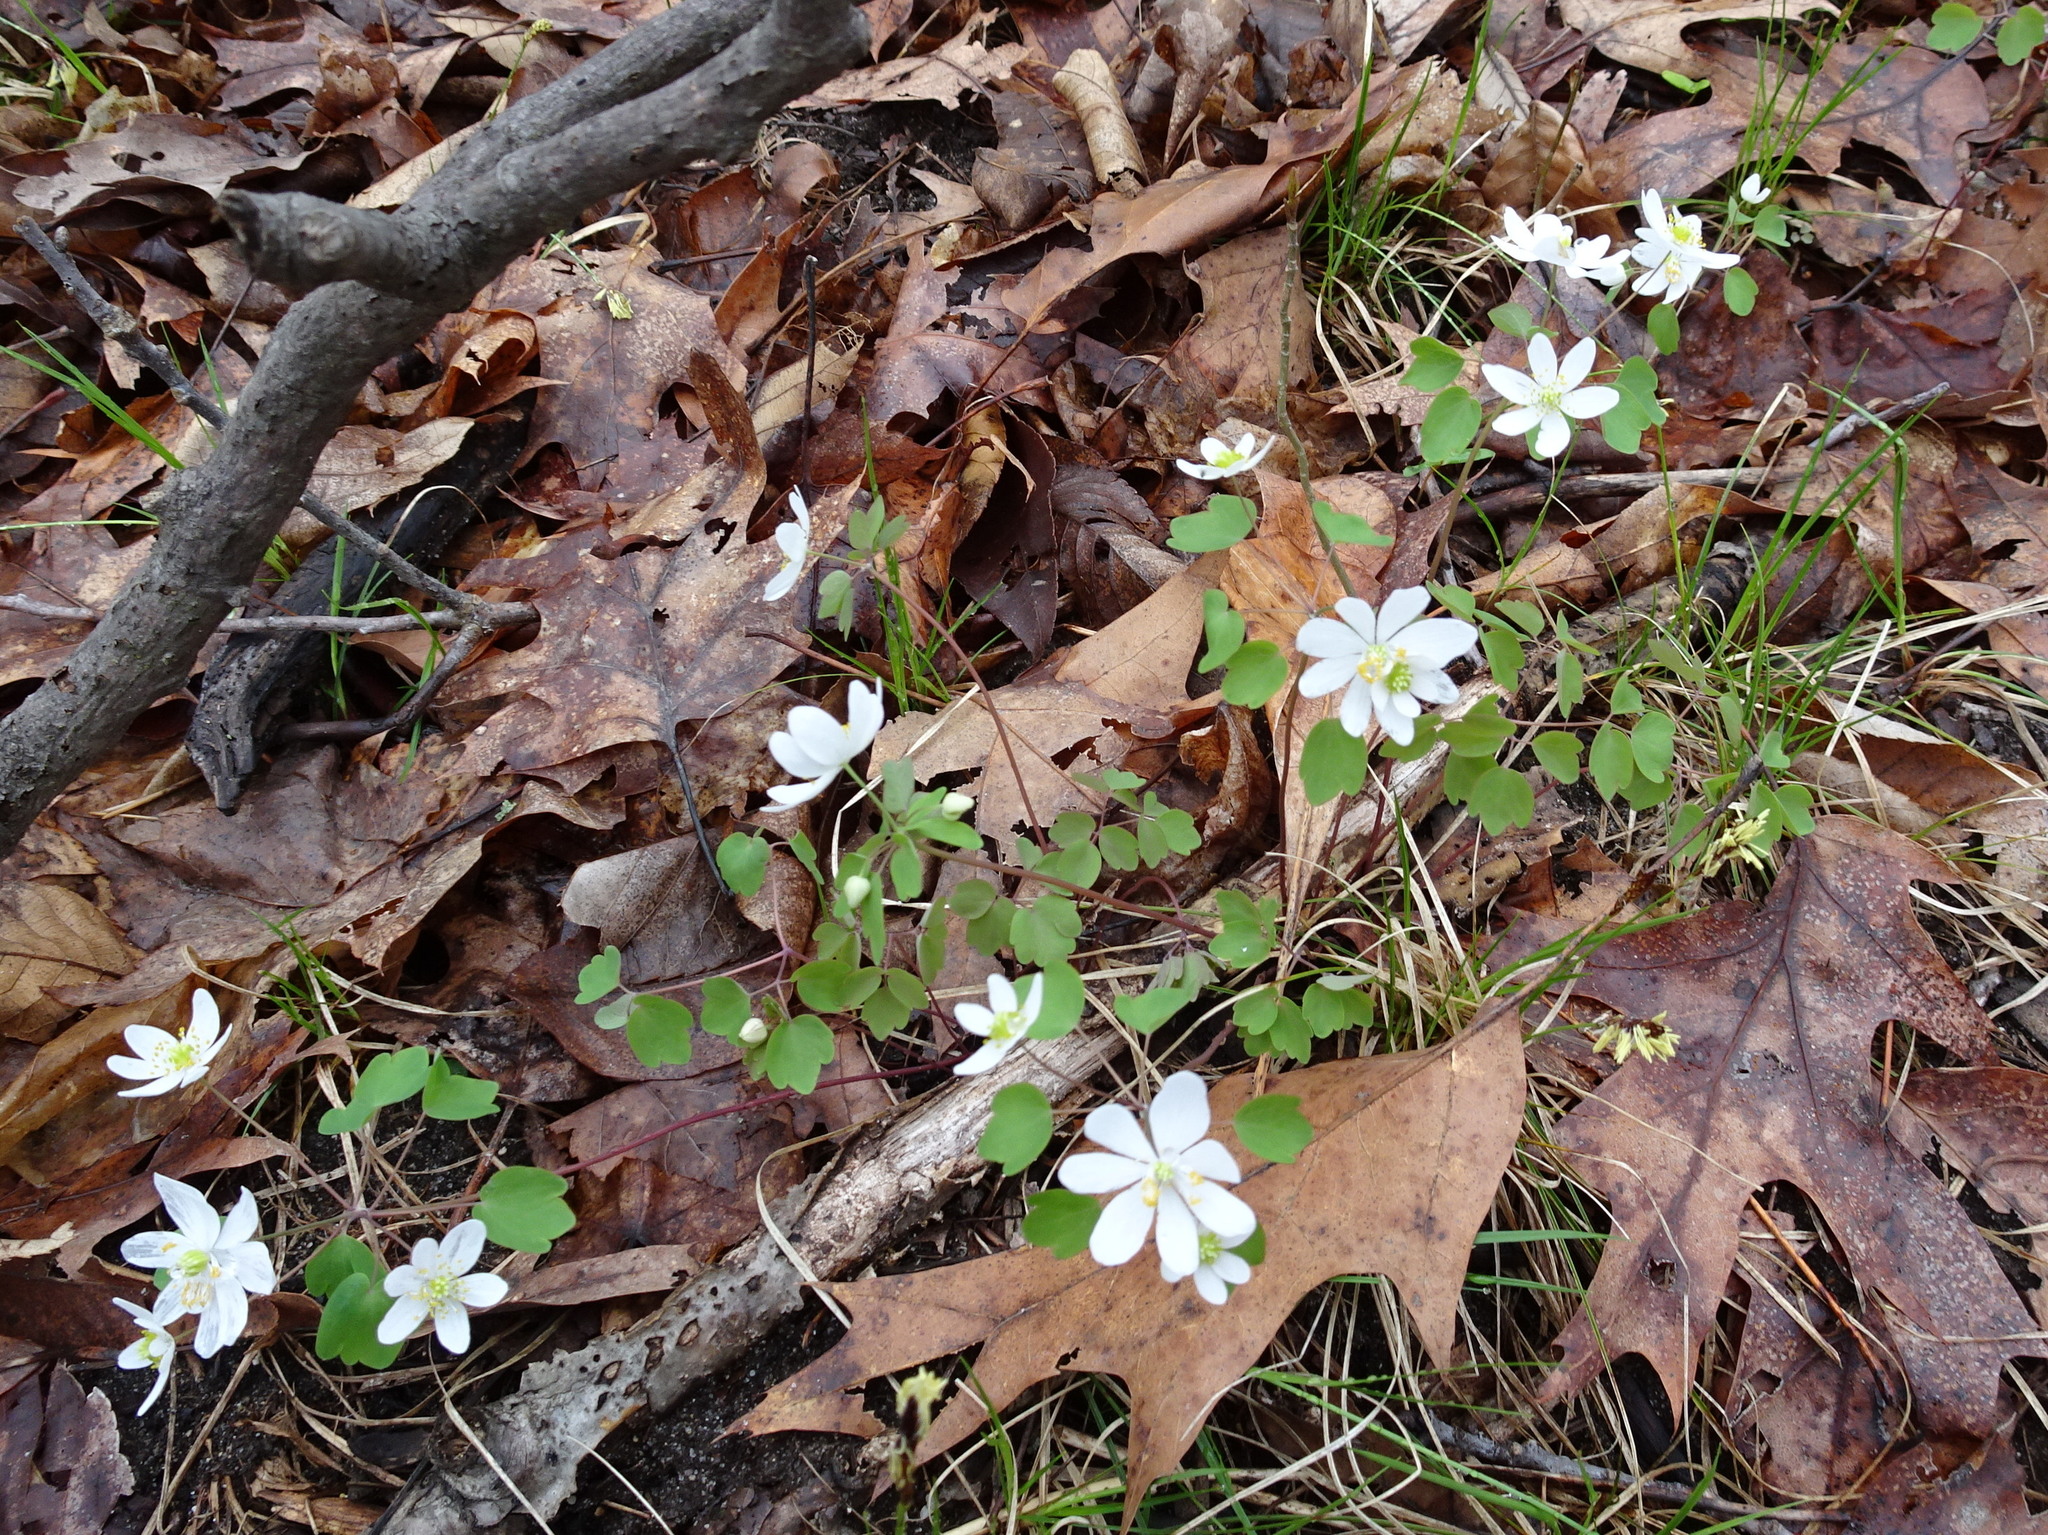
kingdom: Plantae
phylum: Tracheophyta
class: Magnoliopsida
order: Ranunculales
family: Ranunculaceae
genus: Thalictrum
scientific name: Thalictrum thalictroides
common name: Rue-anemone
